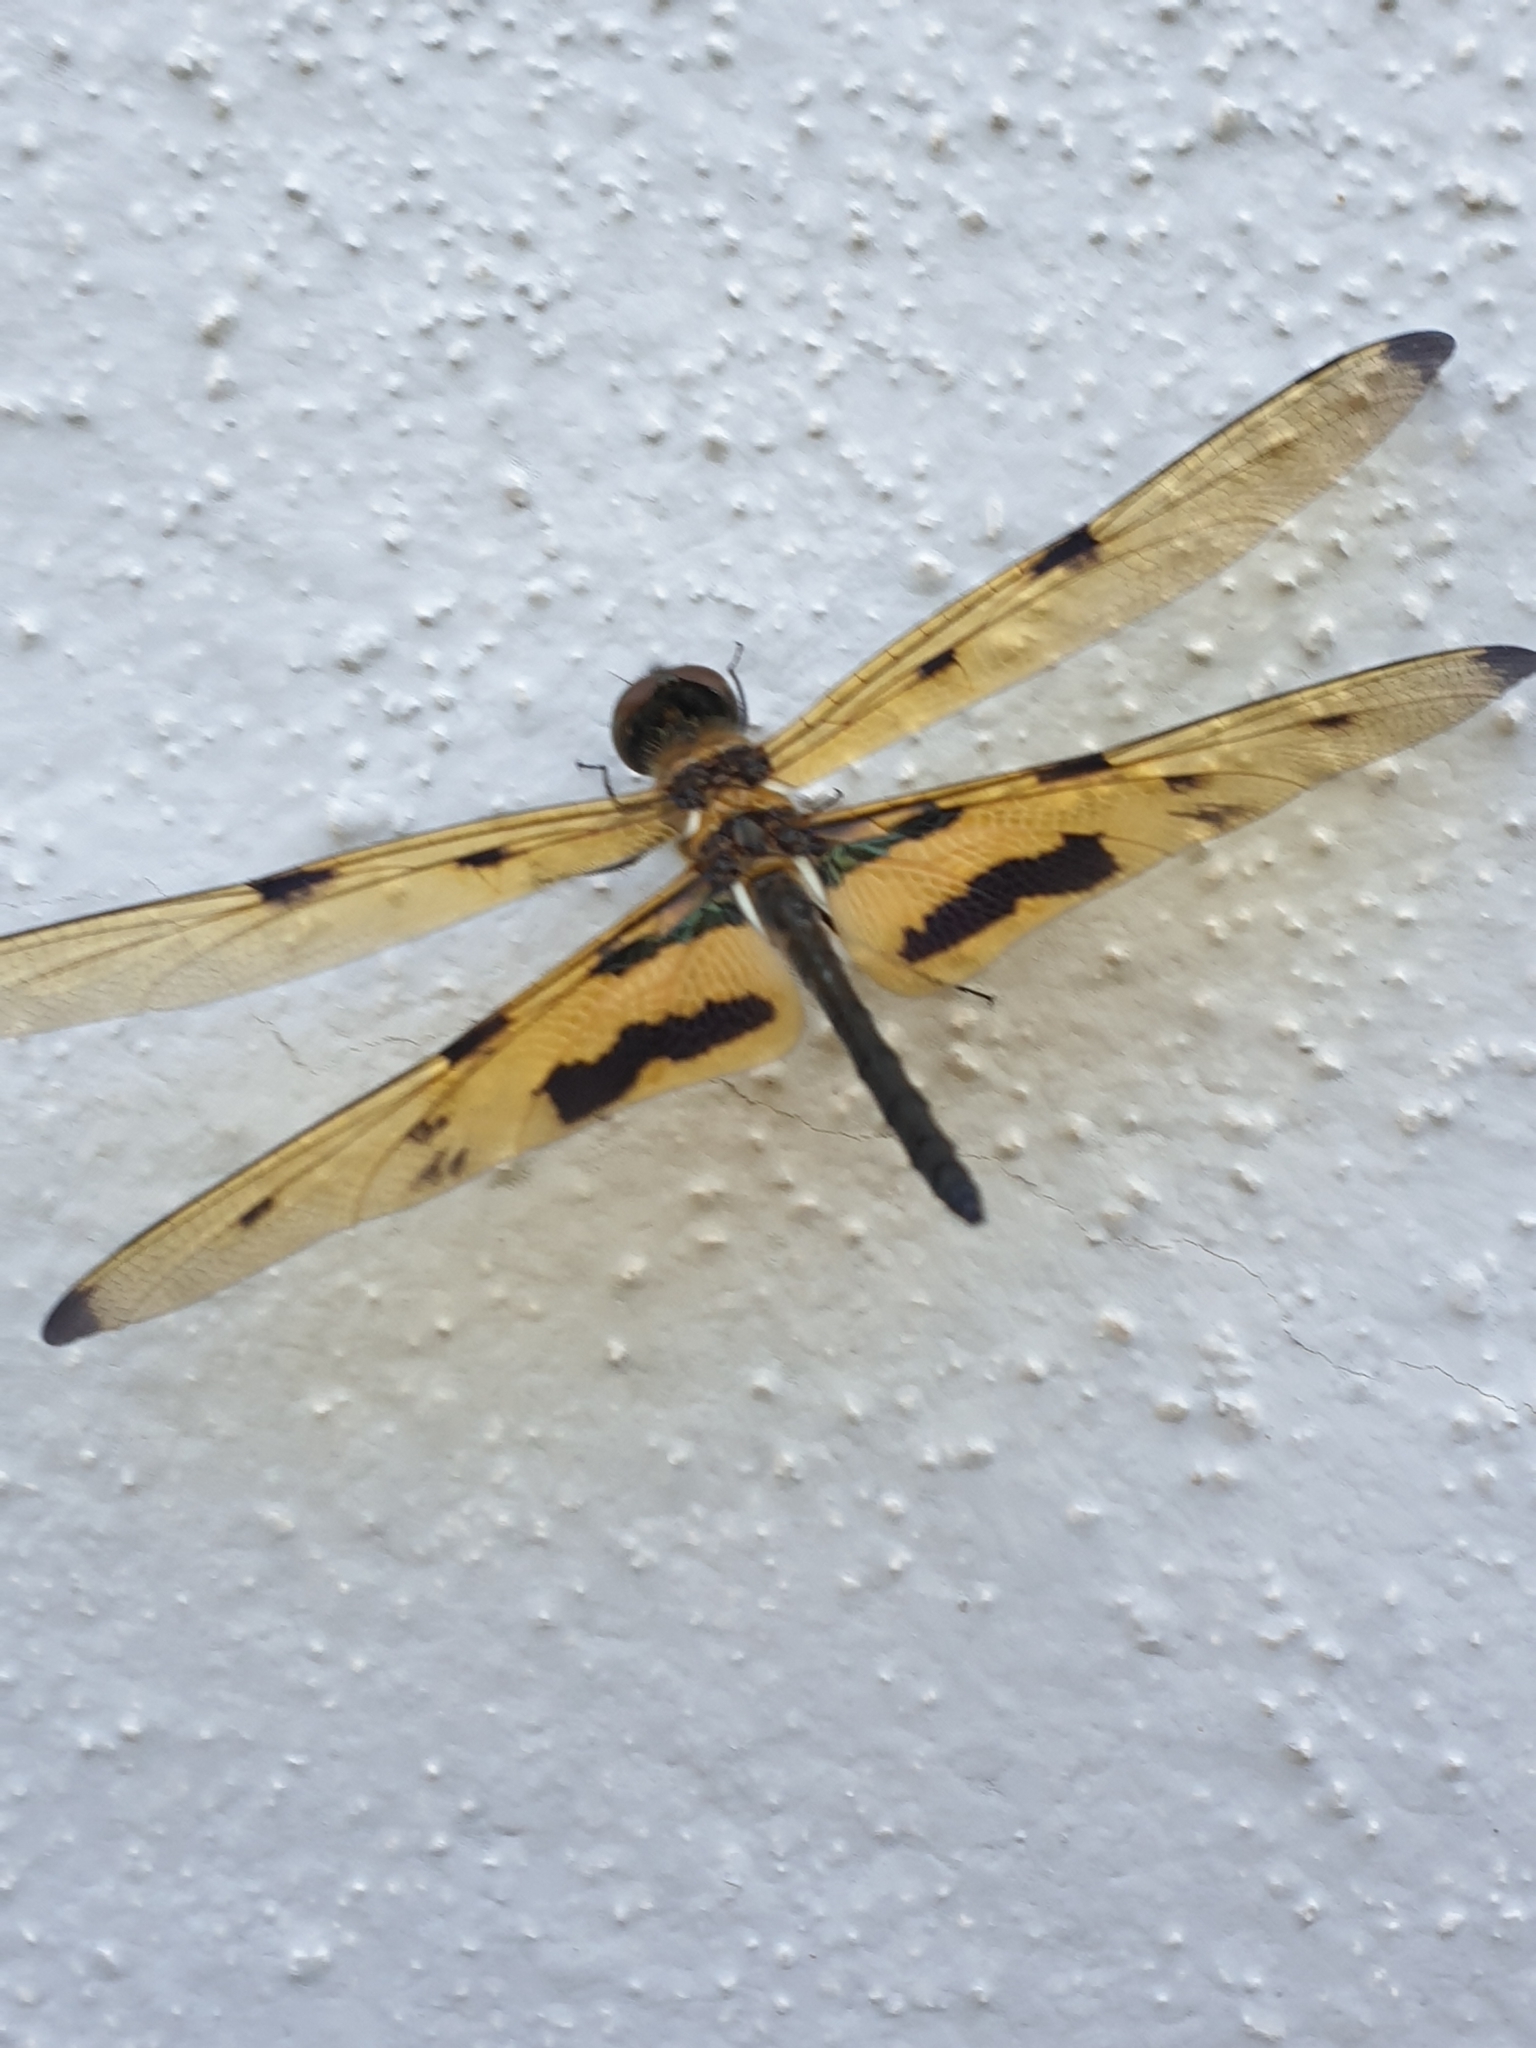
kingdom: Animalia
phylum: Arthropoda
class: Insecta
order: Odonata
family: Libellulidae
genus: Rhyothemis
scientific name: Rhyothemis variegata
